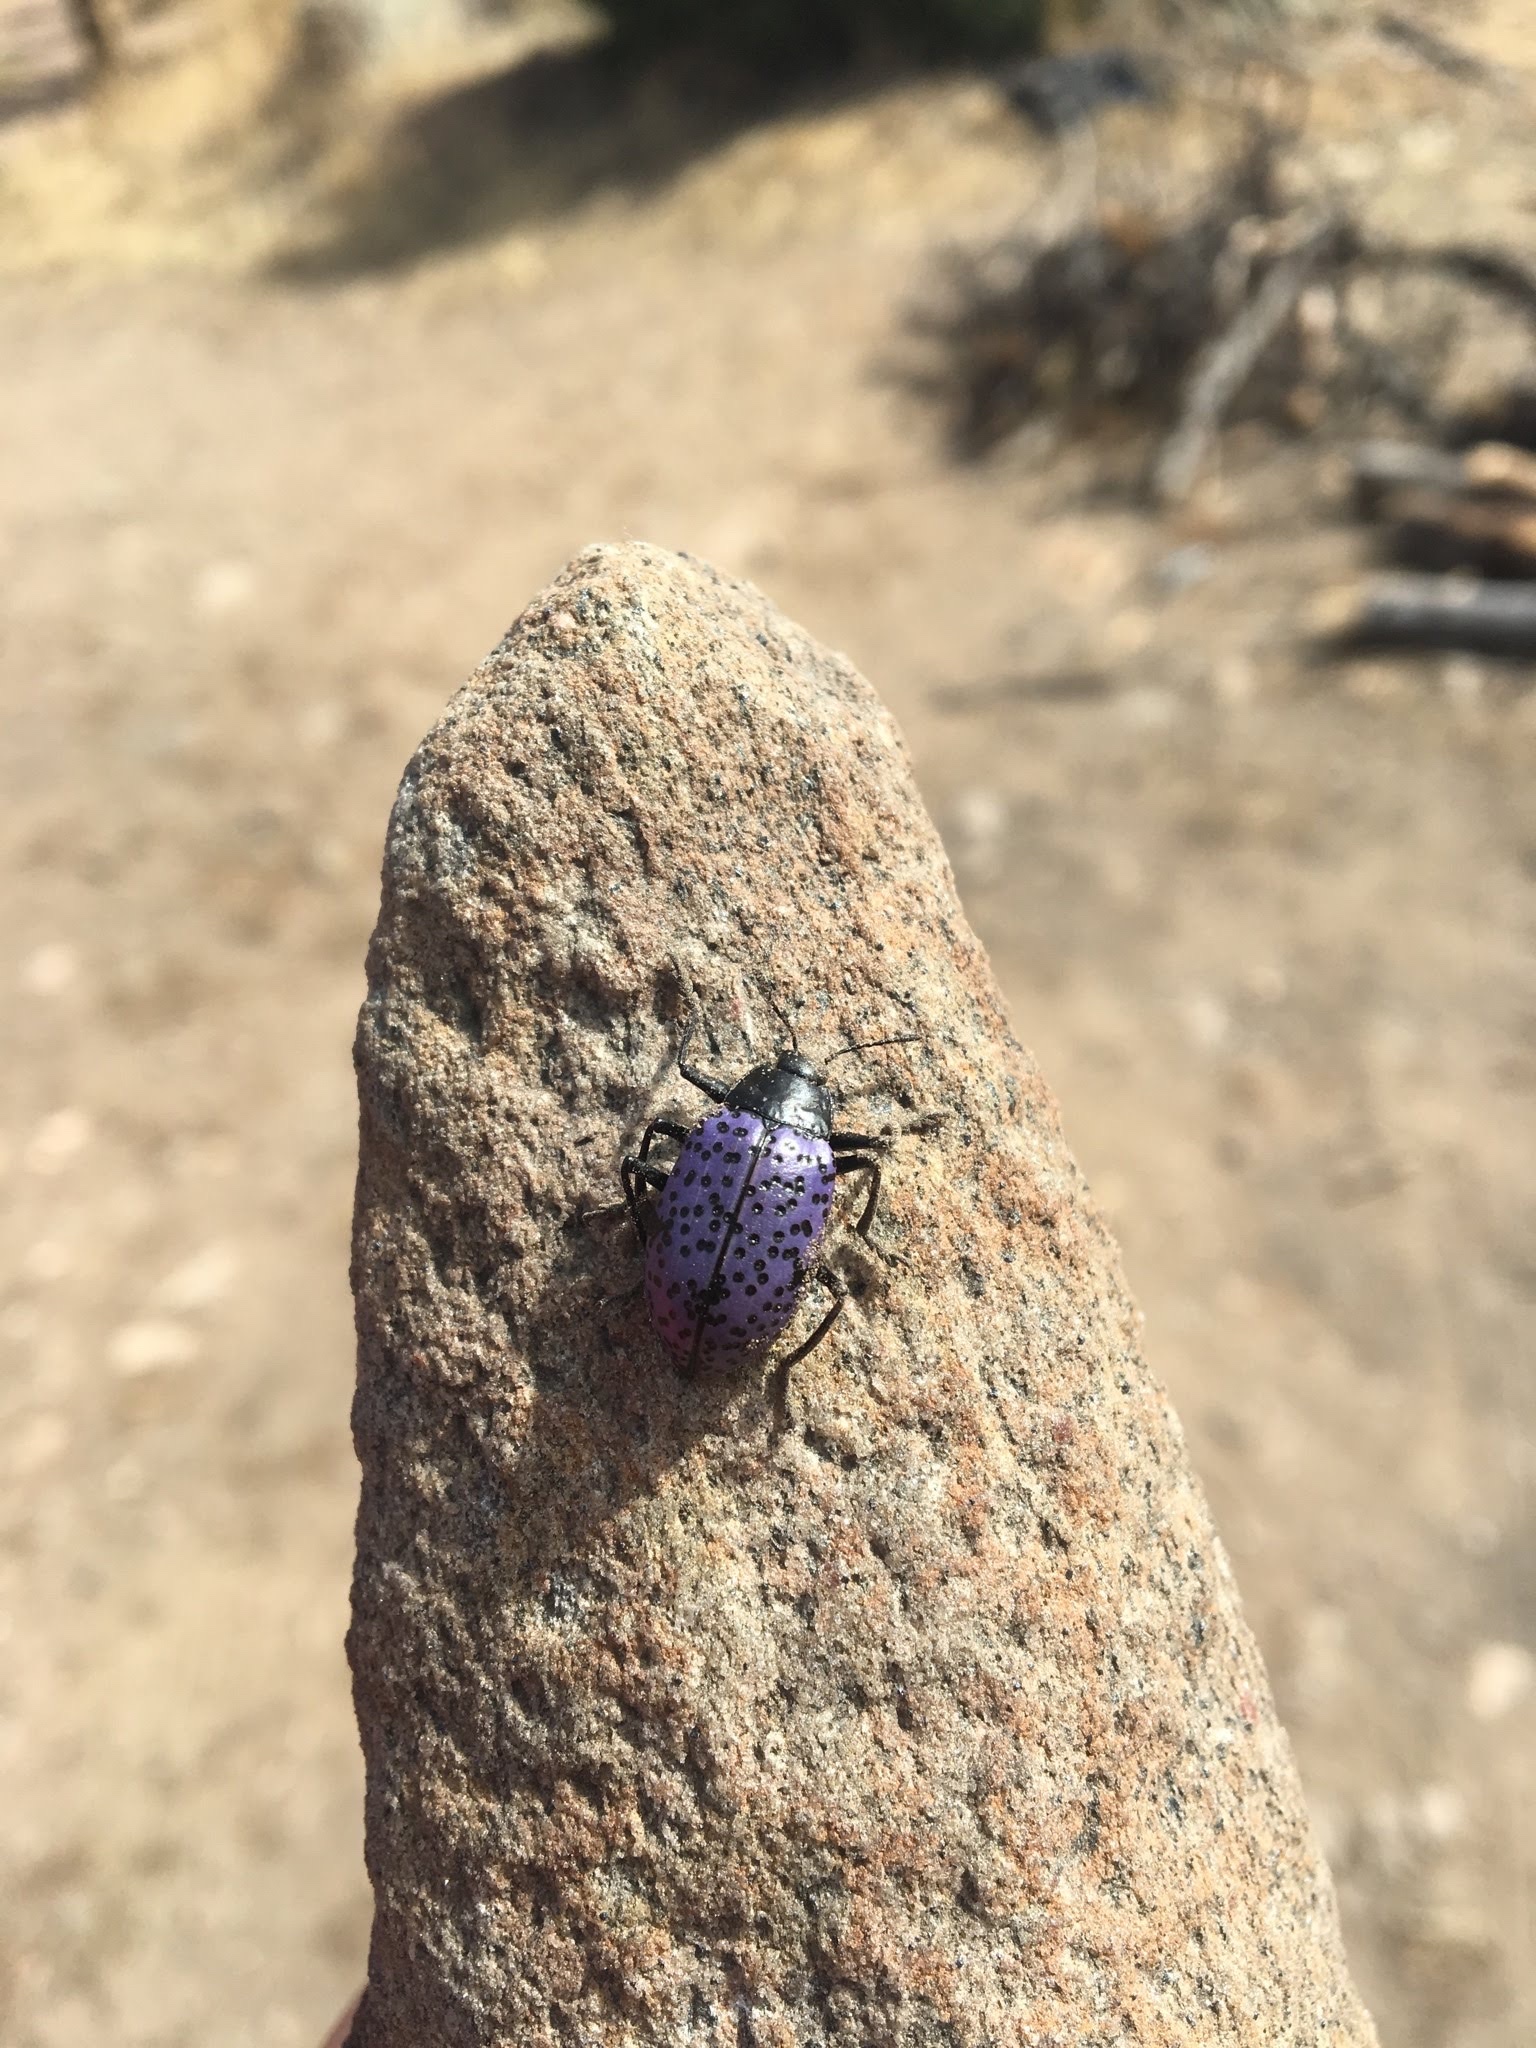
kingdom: Animalia
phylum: Arthropoda
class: Insecta
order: Coleoptera
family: Erotylidae
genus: Gibbifer
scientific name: Gibbifer californicus
